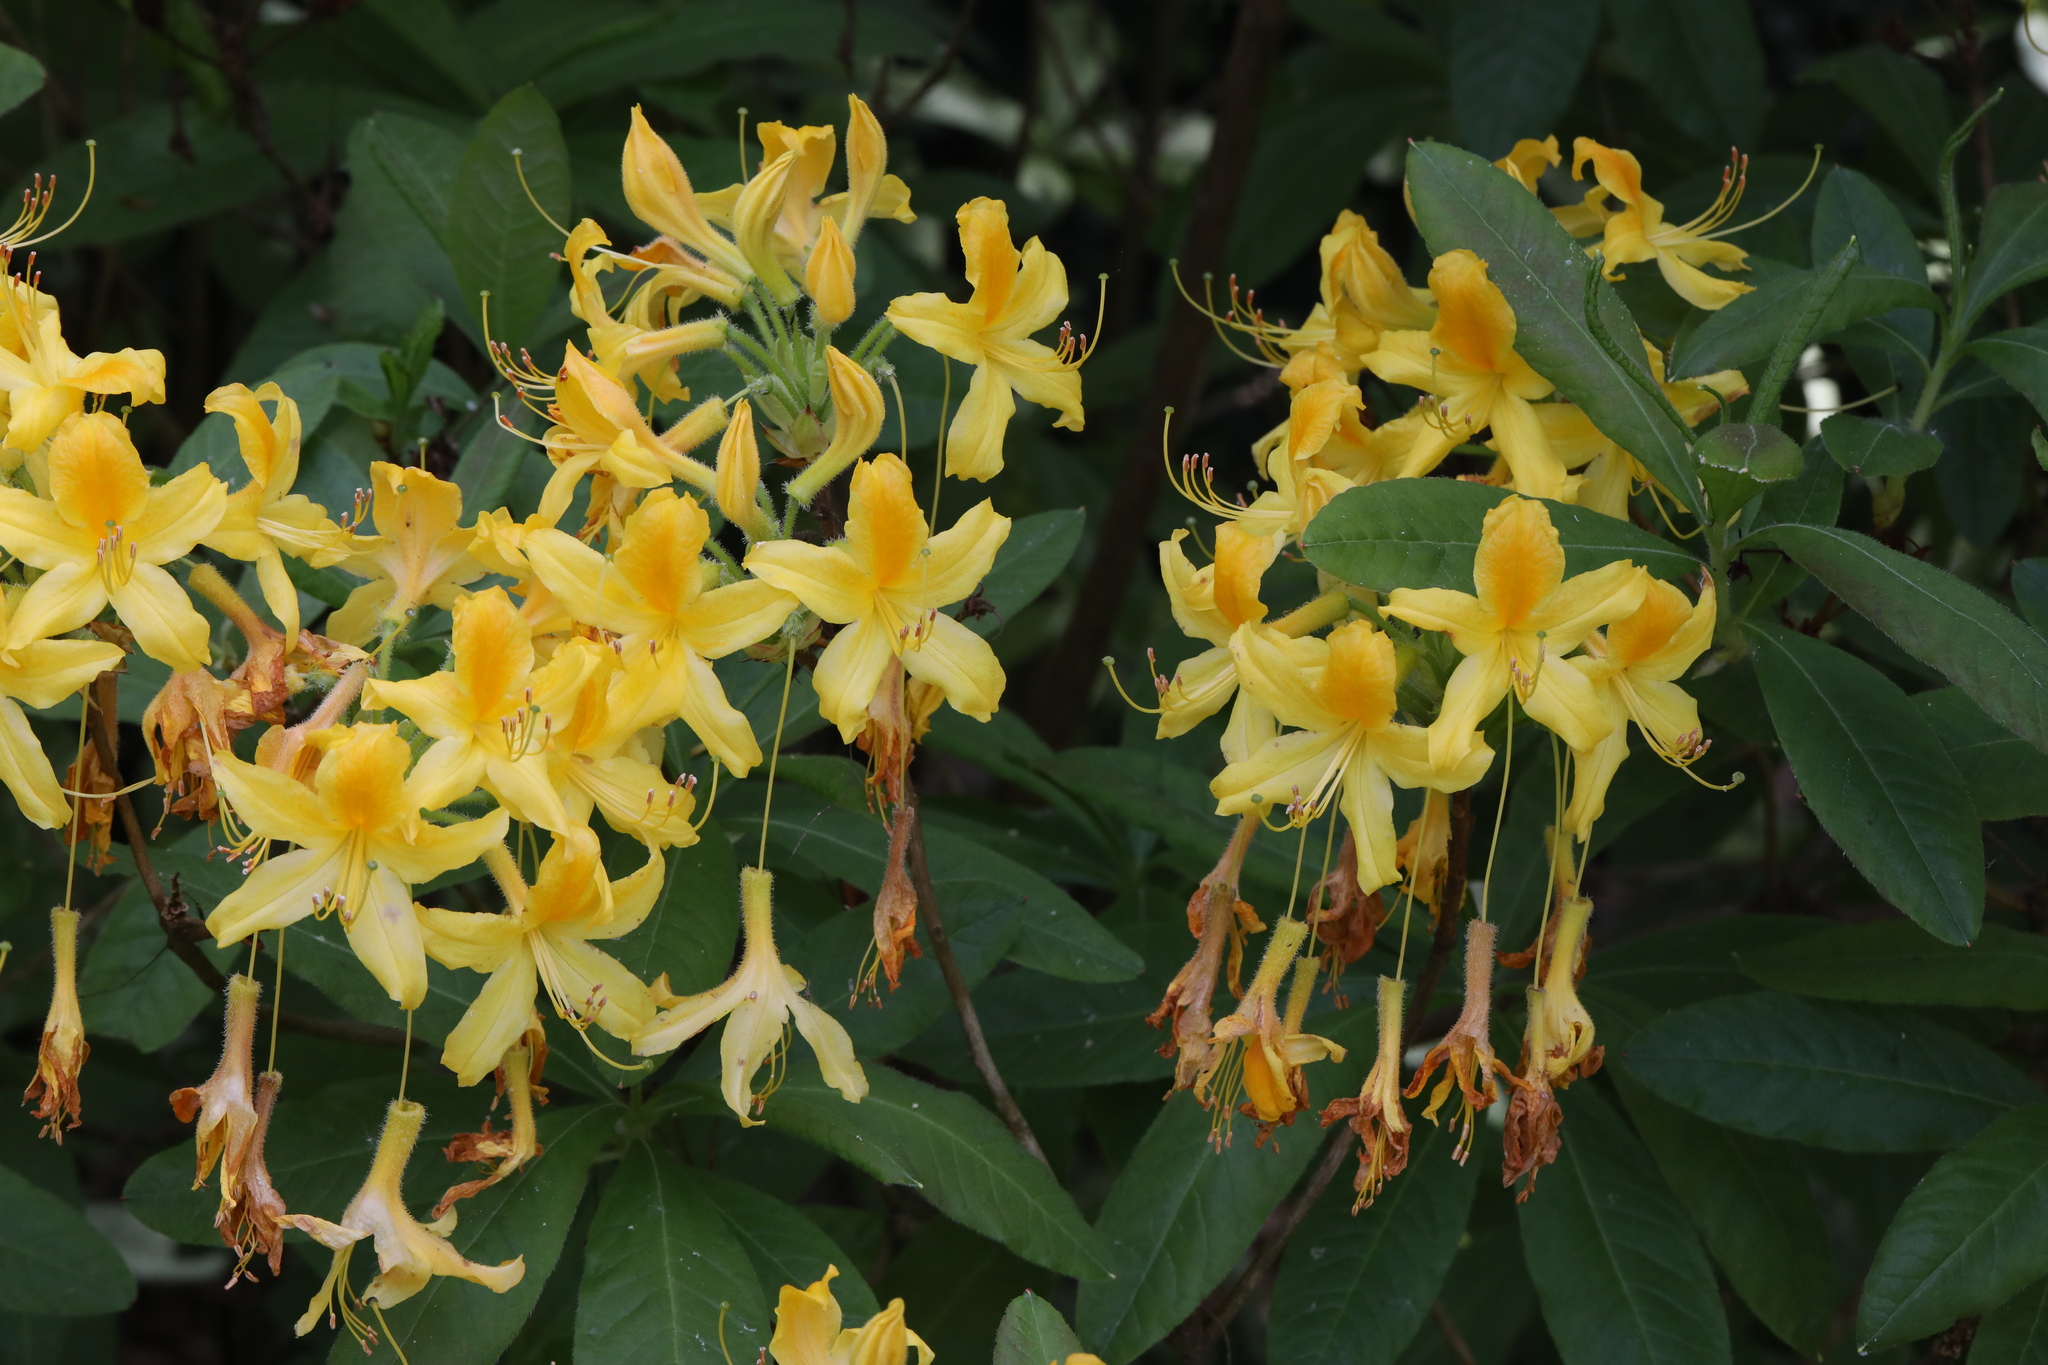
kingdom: Plantae
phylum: Tracheophyta
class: Magnoliopsida
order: Ericales
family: Ericaceae
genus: Rhododendron
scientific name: Rhododendron luteum
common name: Yellow azalea
